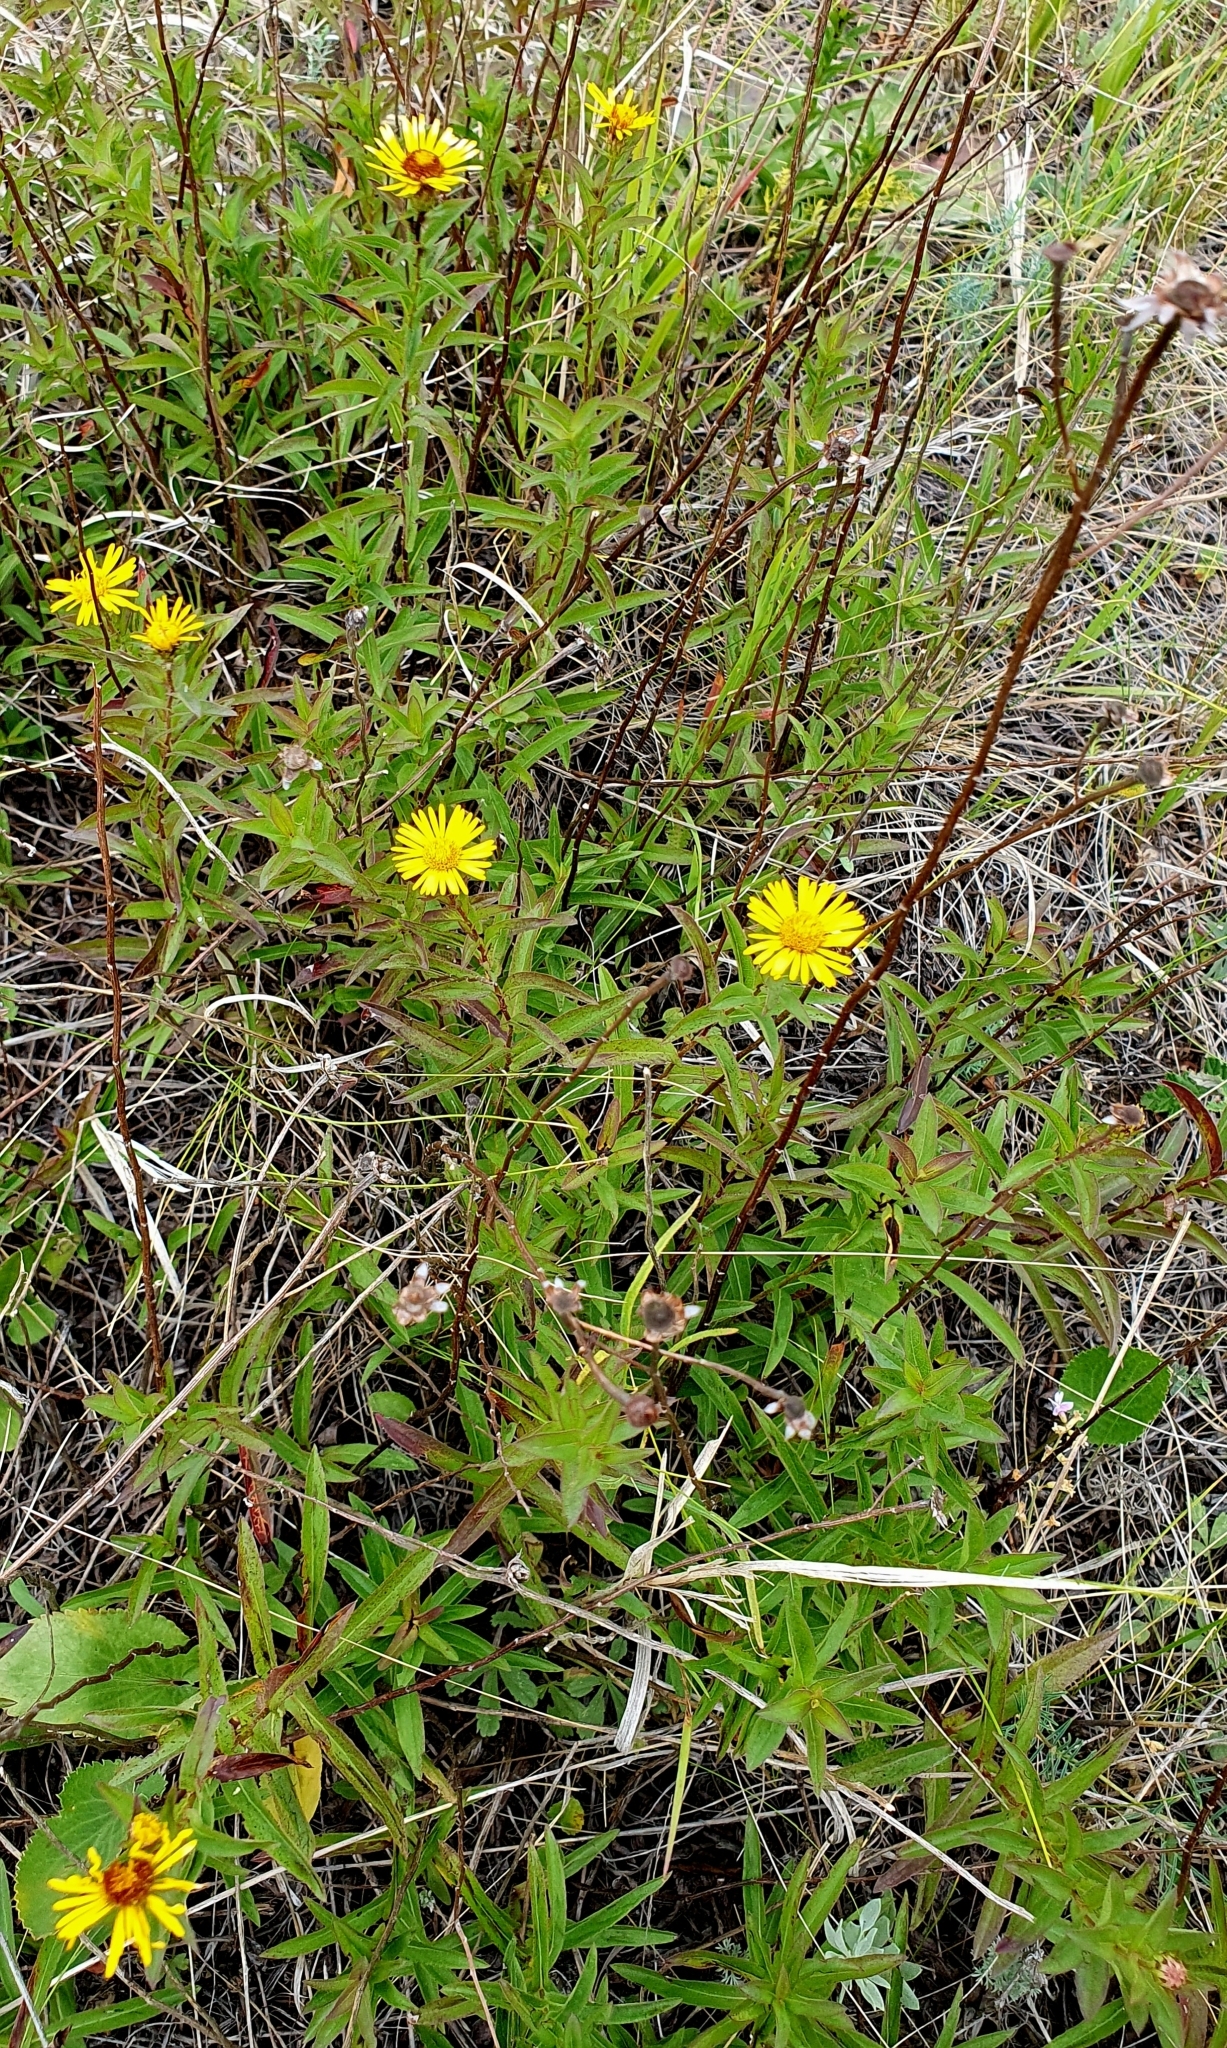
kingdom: Plantae
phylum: Tracheophyta
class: Magnoliopsida
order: Asterales
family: Asteraceae
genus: Pentanema
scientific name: Pentanema salicinum
